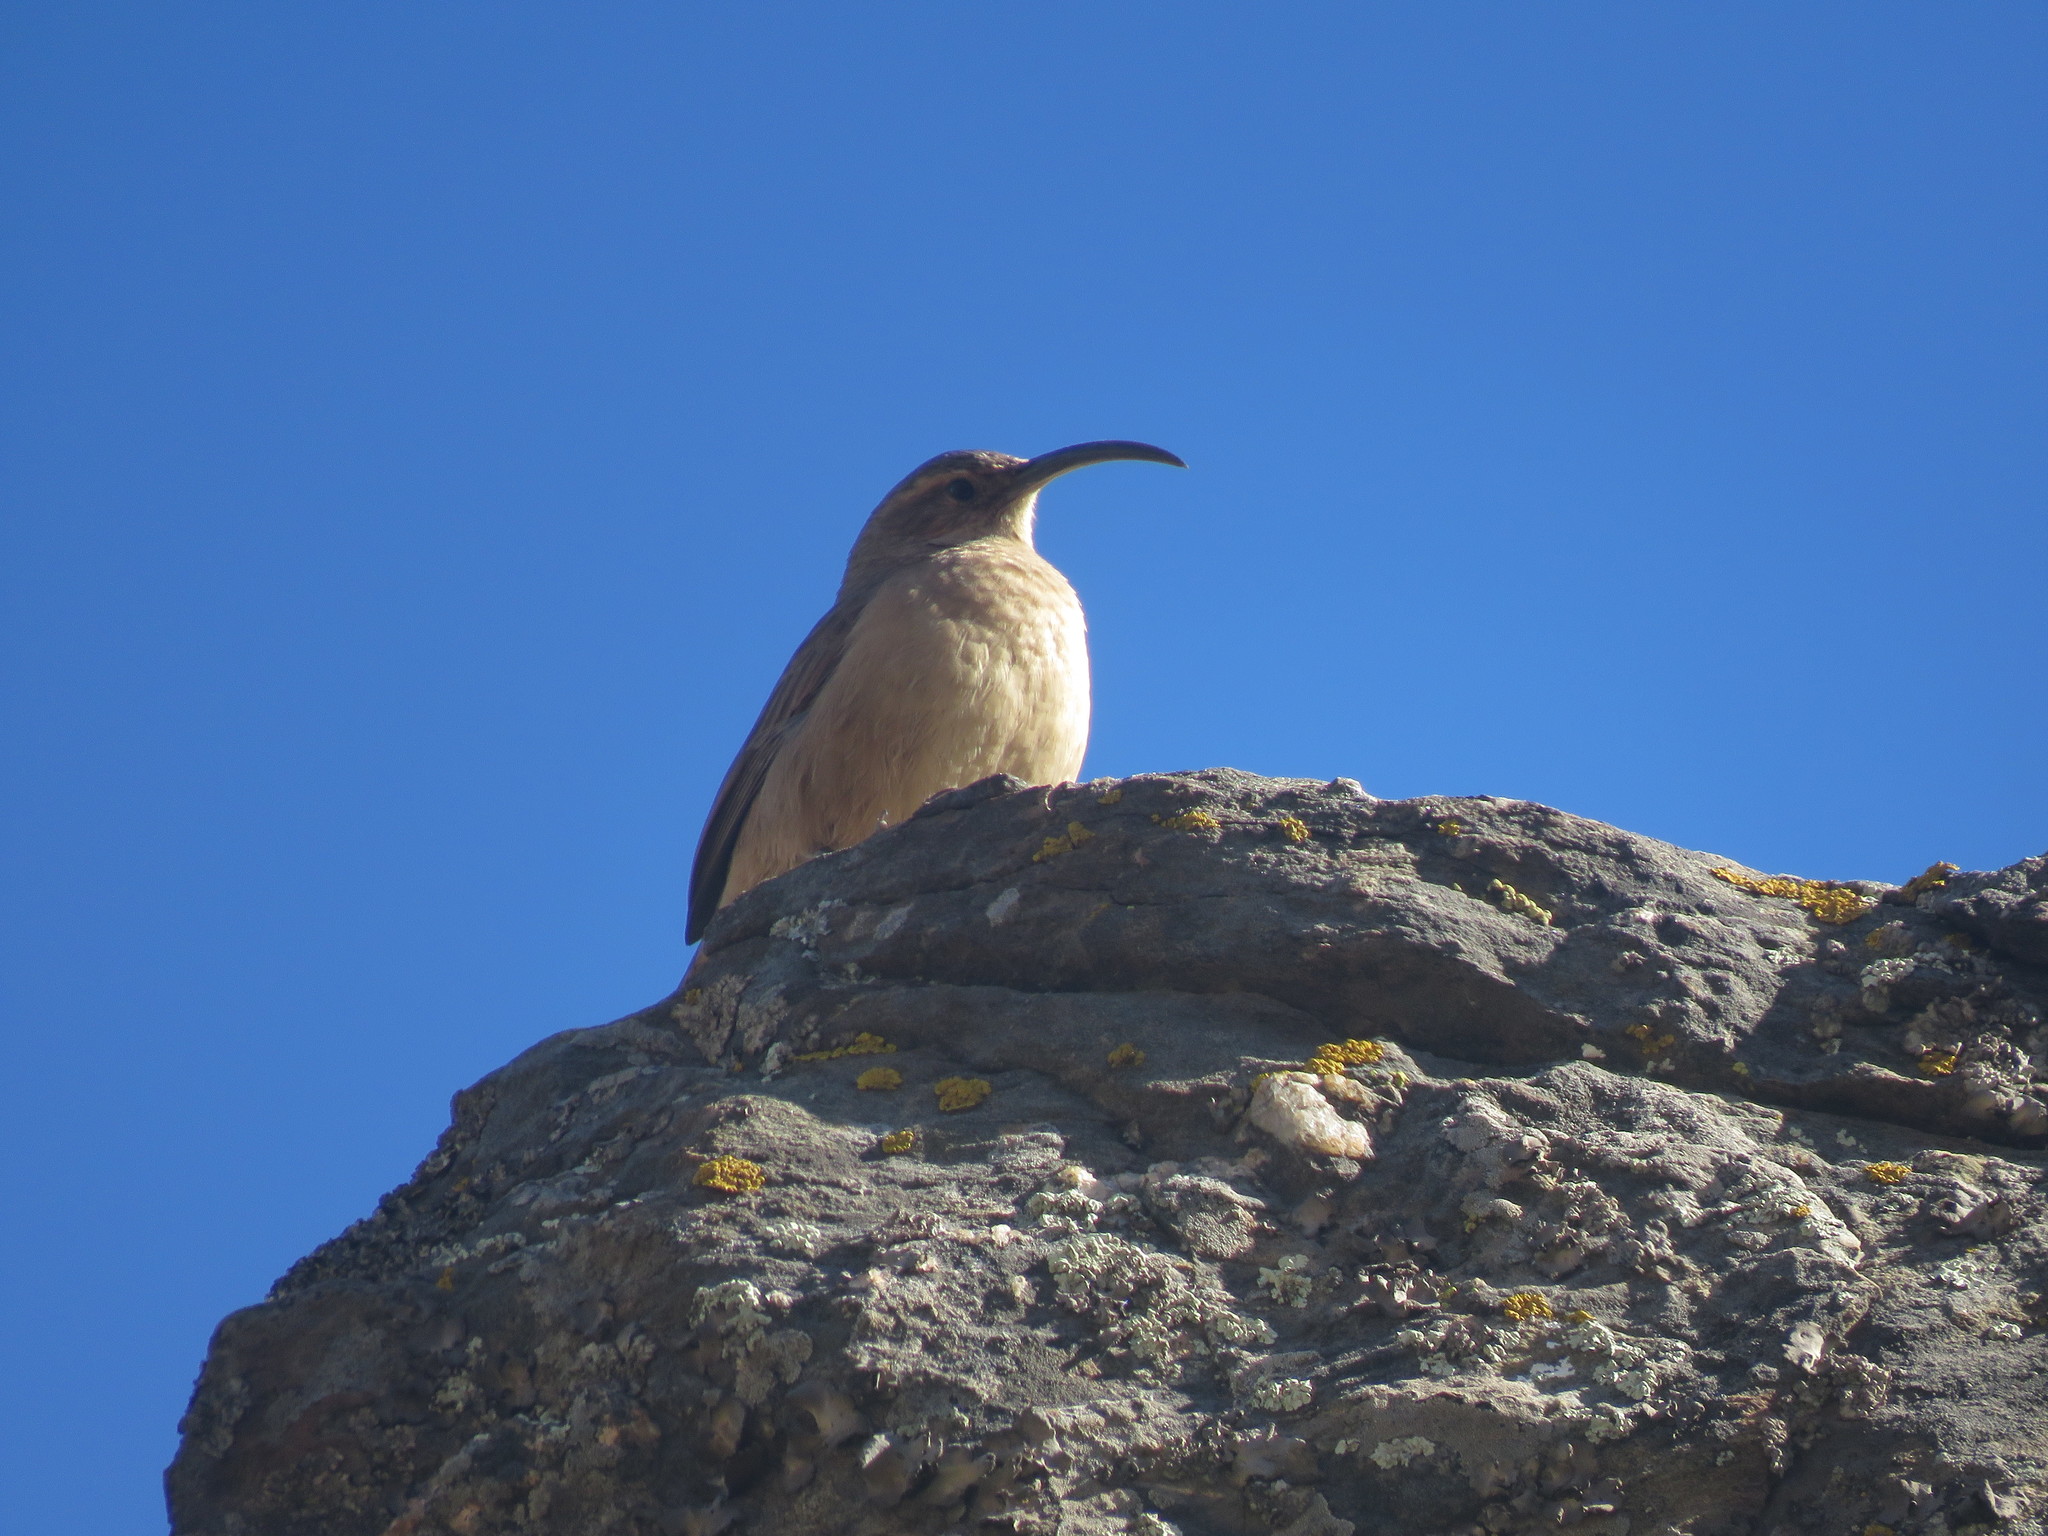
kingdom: Animalia
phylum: Chordata
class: Aves
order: Passeriformes
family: Furnariidae
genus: Upucerthia
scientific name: Upucerthia validirostris
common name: Buff-breasted earthcreeper
